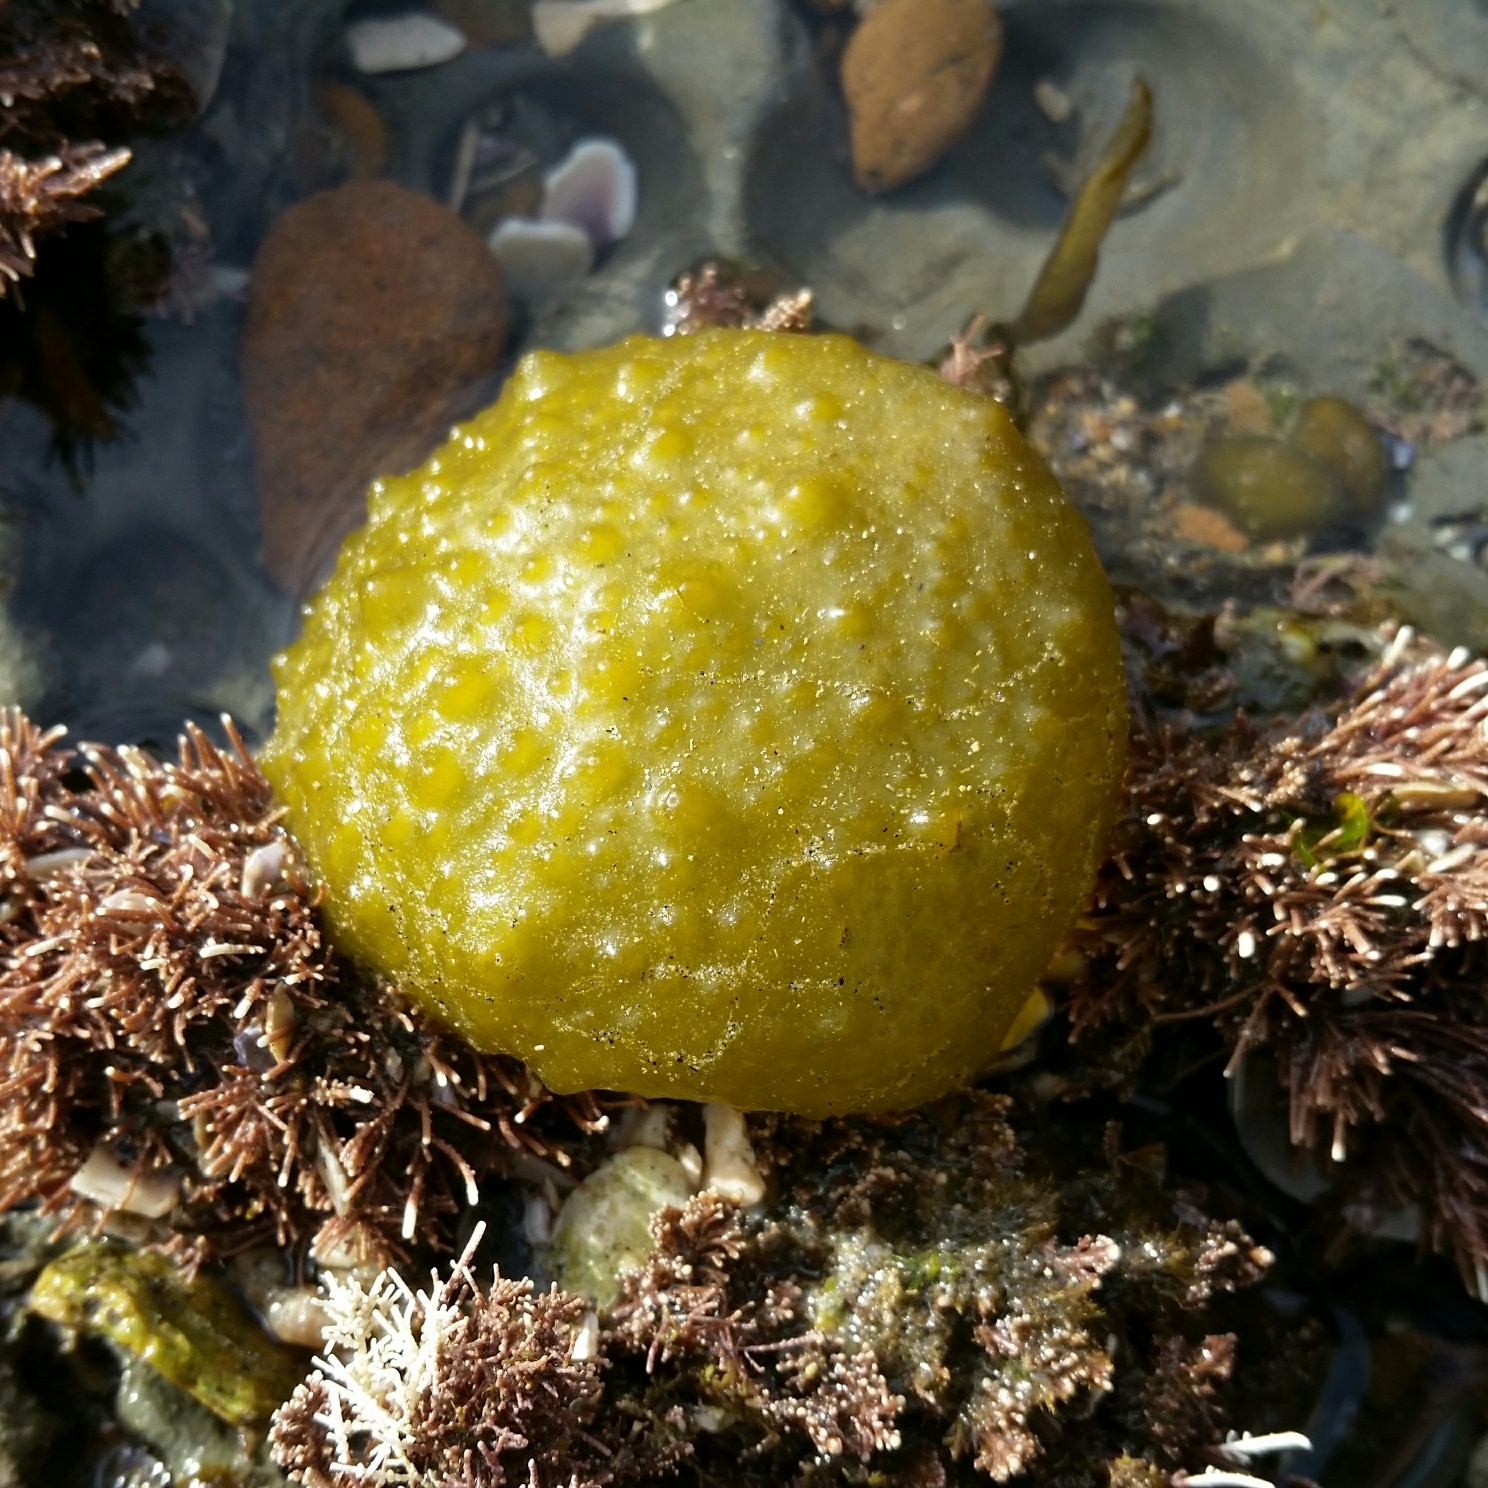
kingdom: Chromista
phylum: Ochrophyta
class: Phaeophyceae
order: Scytosiphonales
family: Scytosiphonaceae
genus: Colpomenia
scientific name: Colpomenia
